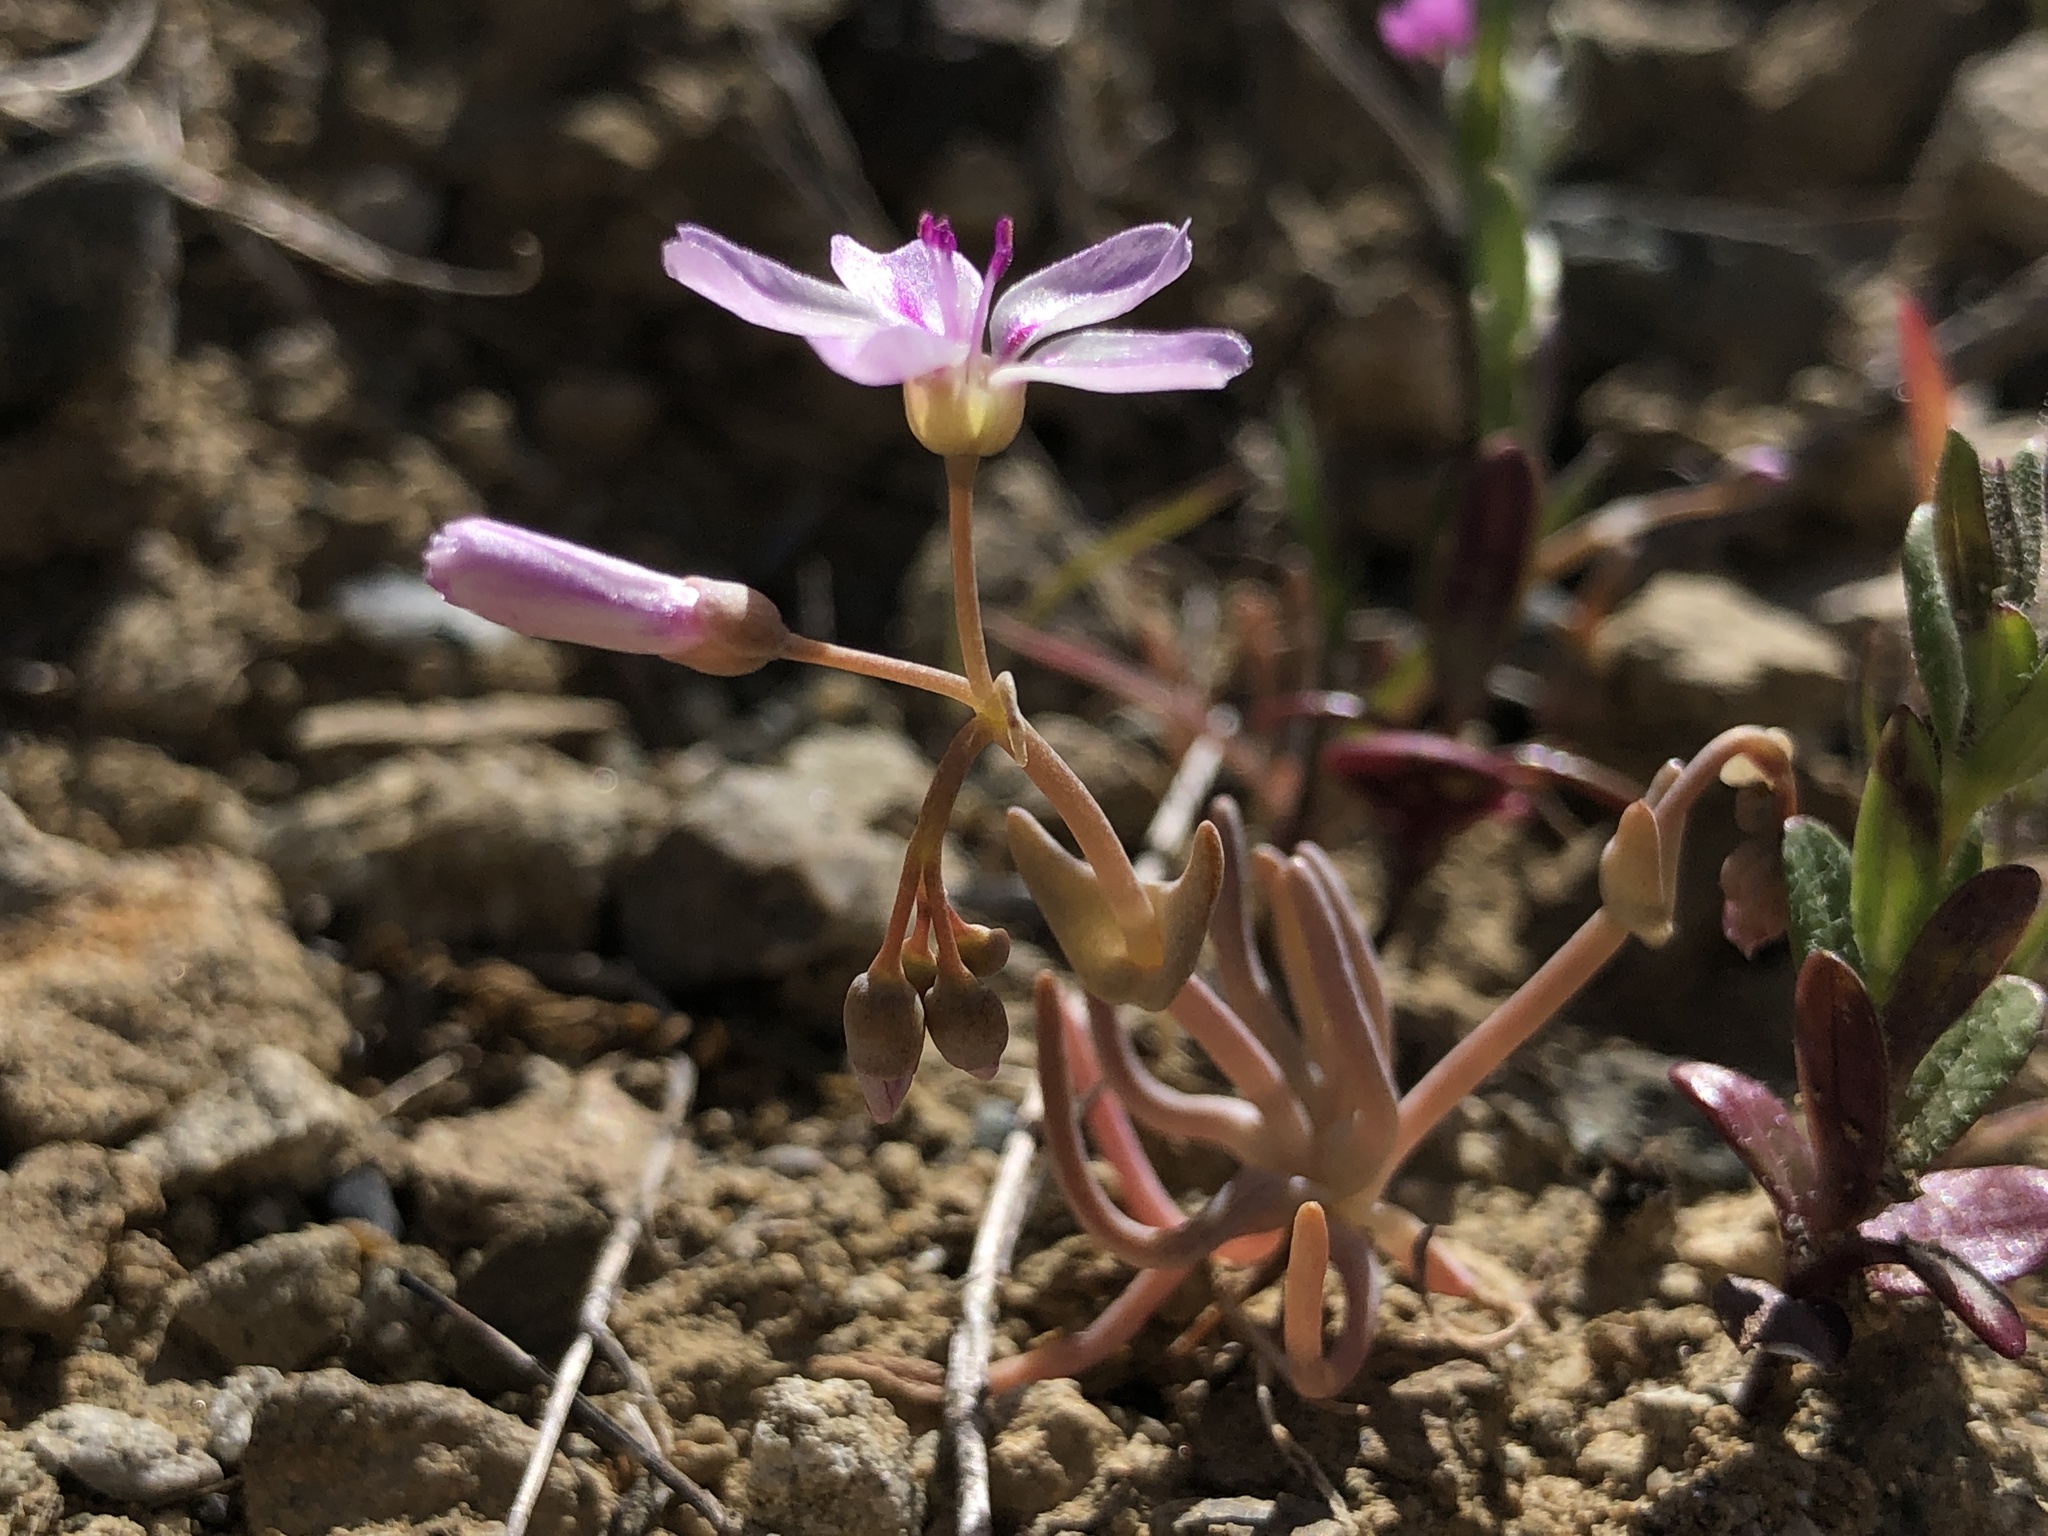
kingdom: Plantae
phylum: Tracheophyta
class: Magnoliopsida
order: Caryophyllales
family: Montiaceae
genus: Claytonia
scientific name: Claytonia gypsophiloides
